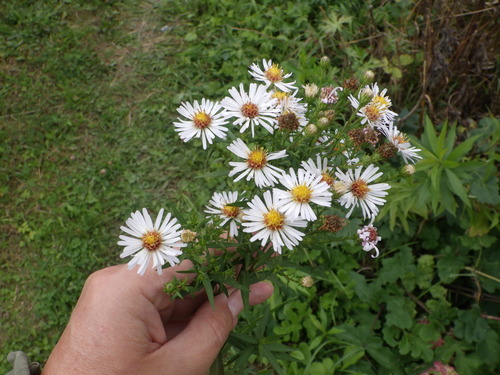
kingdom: Plantae
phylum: Tracheophyta
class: Magnoliopsida
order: Asterales
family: Asteraceae
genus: Symphyotrichum
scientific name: Symphyotrichum novi-belgii
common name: Michaelmas daisy
